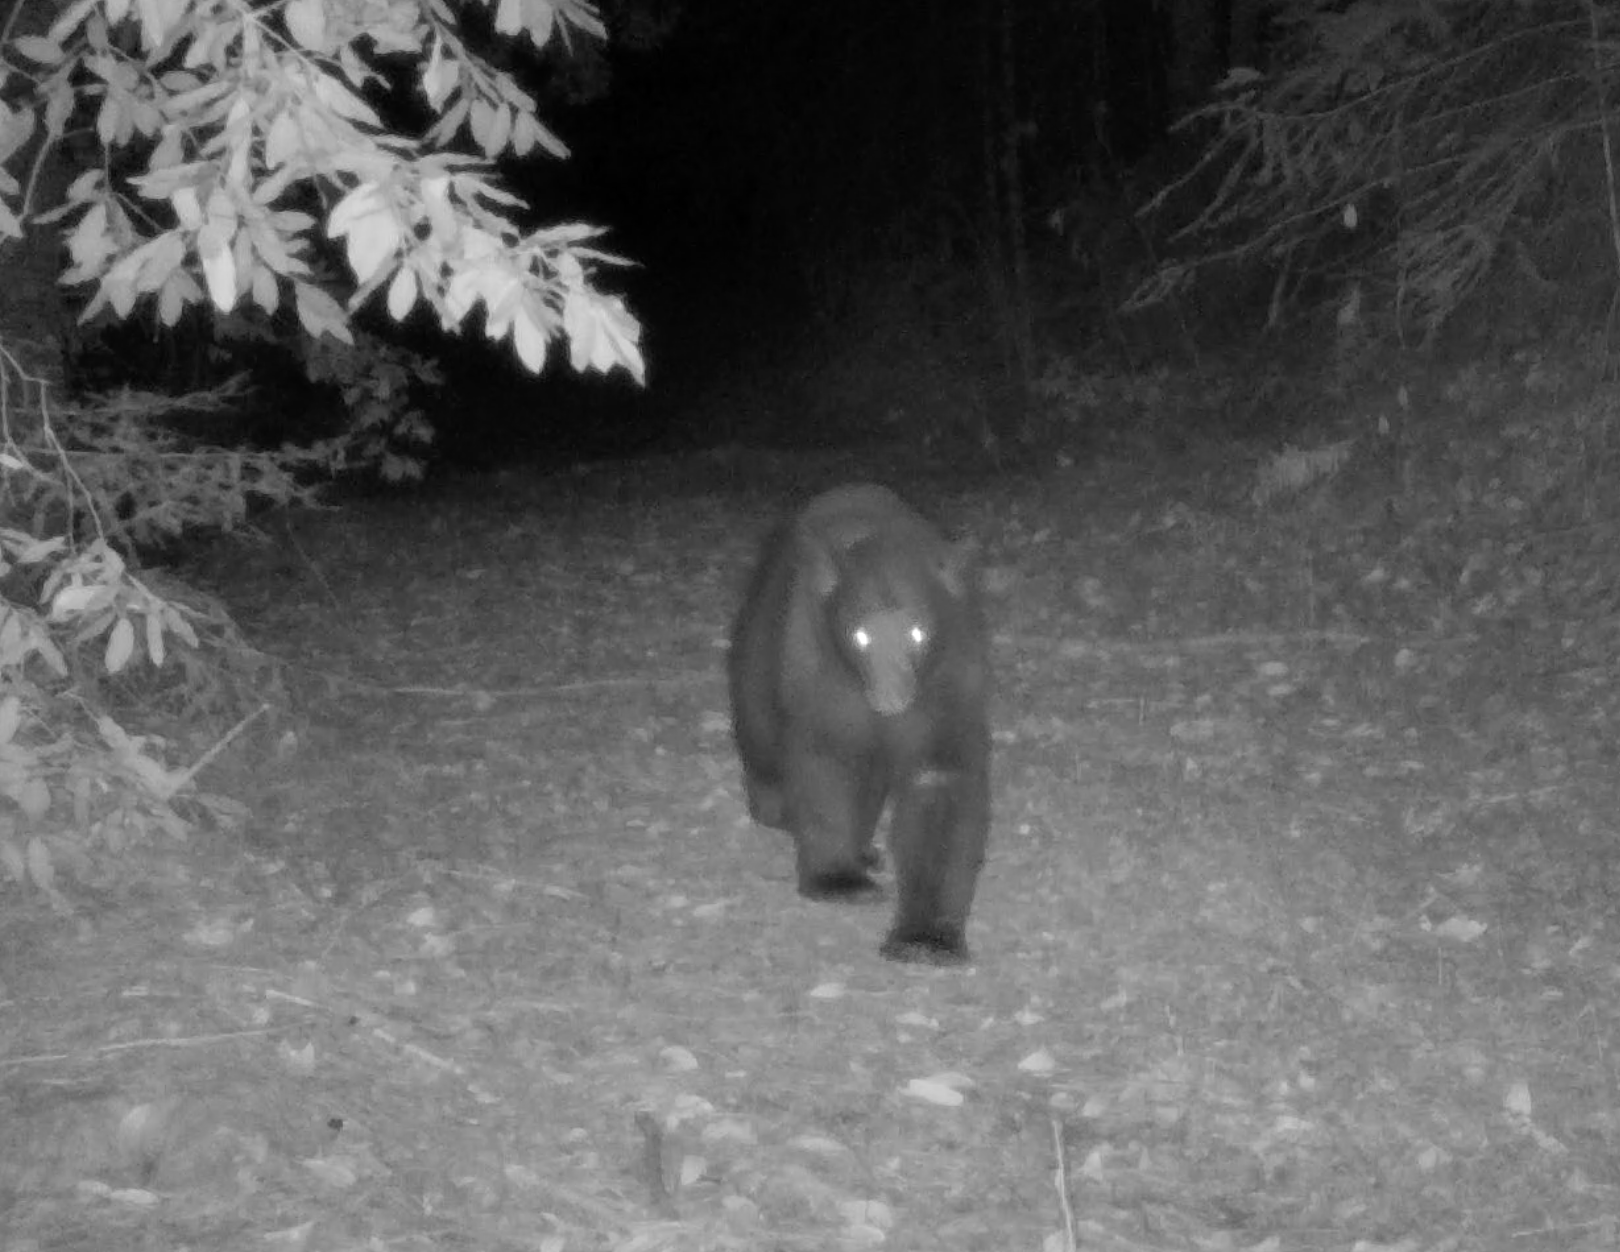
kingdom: Animalia
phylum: Chordata
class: Mammalia
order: Carnivora
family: Ursidae
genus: Ursus
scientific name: Ursus americanus
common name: American black bear
